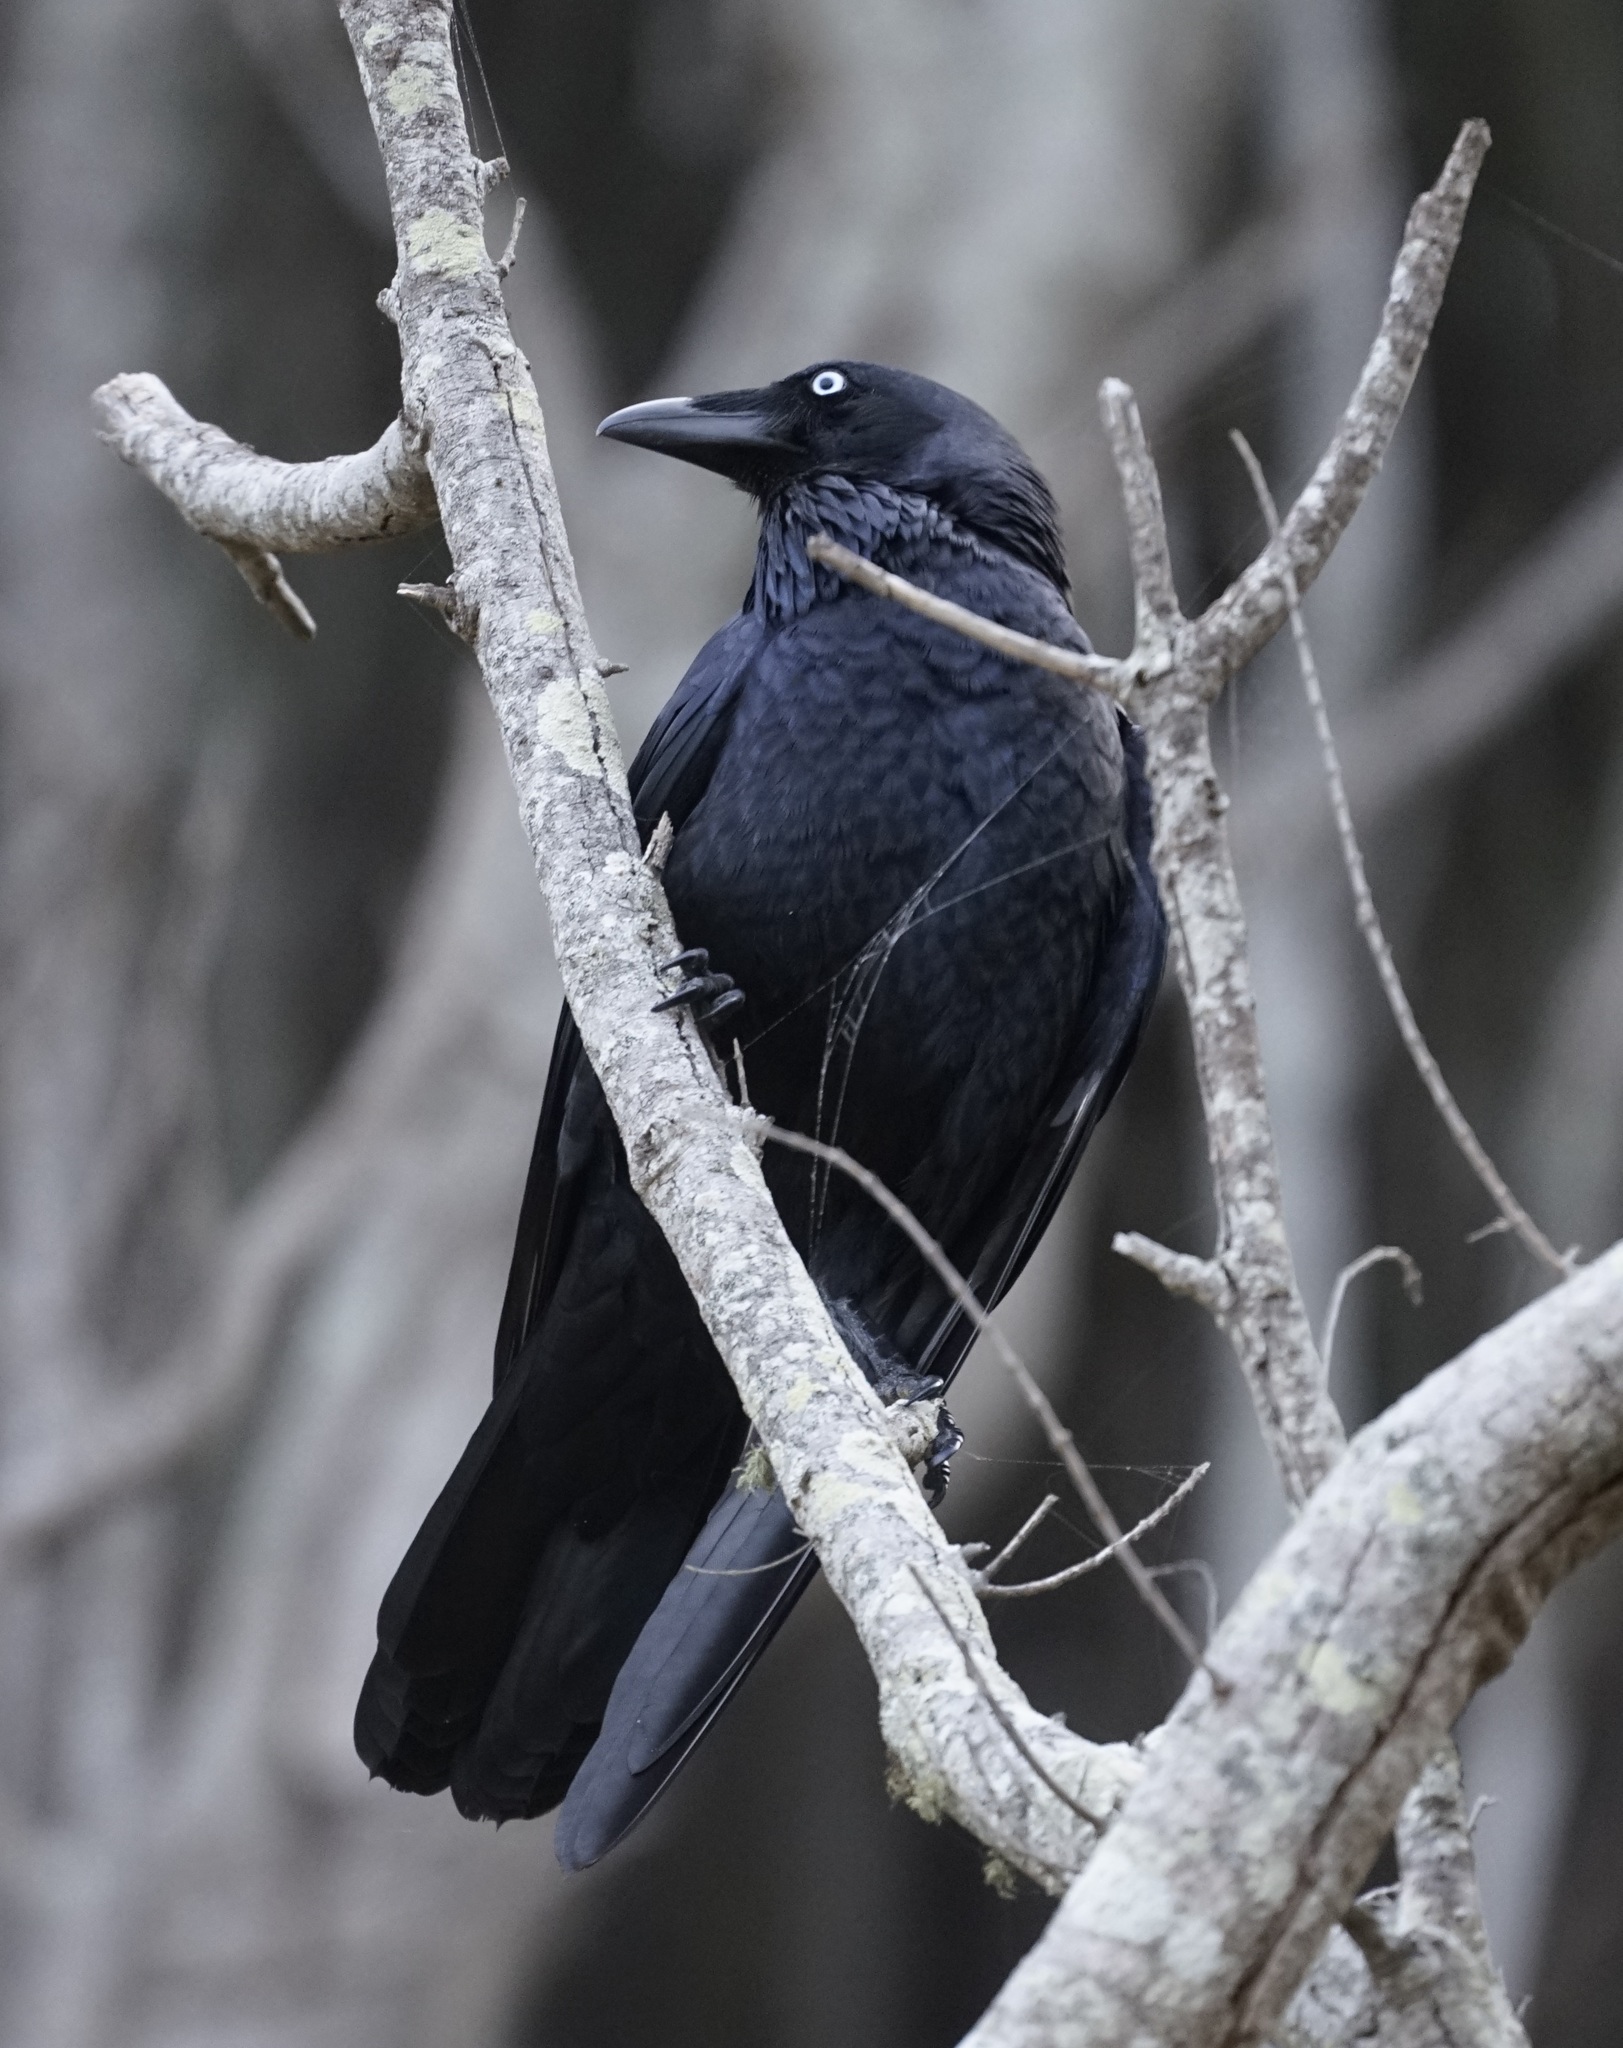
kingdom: Animalia
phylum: Chordata
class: Aves
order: Passeriformes
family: Corvidae
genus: Corvus
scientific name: Corvus coronoides
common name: Australian raven
